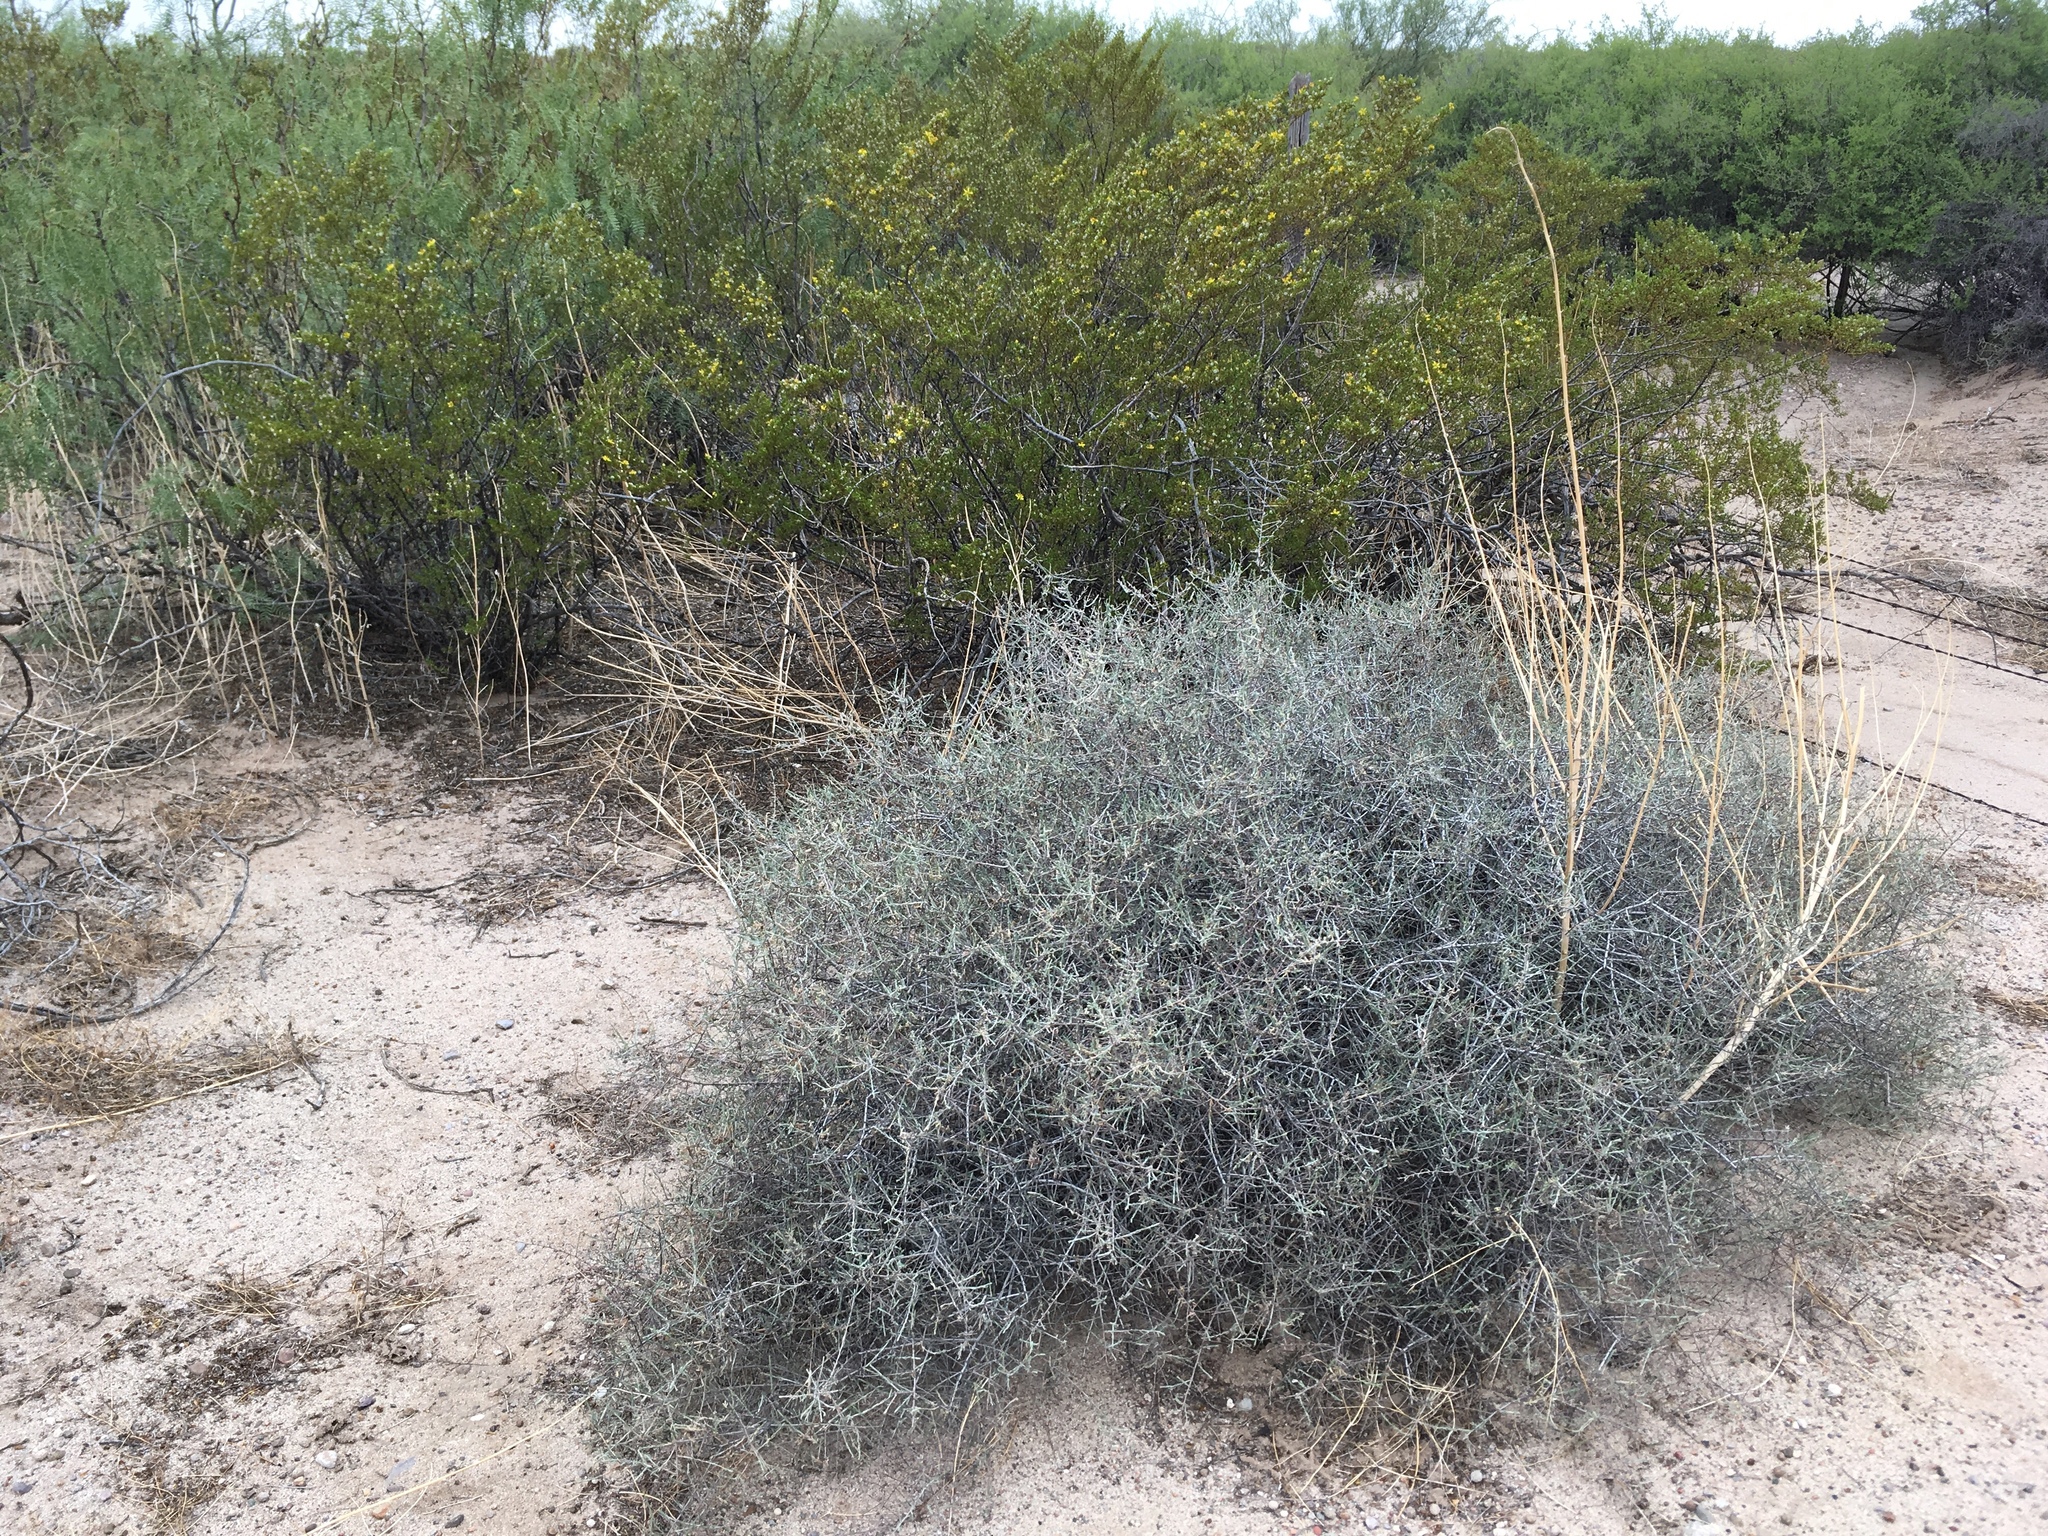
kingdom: Plantae
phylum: Tracheophyta
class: Magnoliopsida
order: Zygophyllales
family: Krameriaceae
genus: Krameria
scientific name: Krameria erecta
